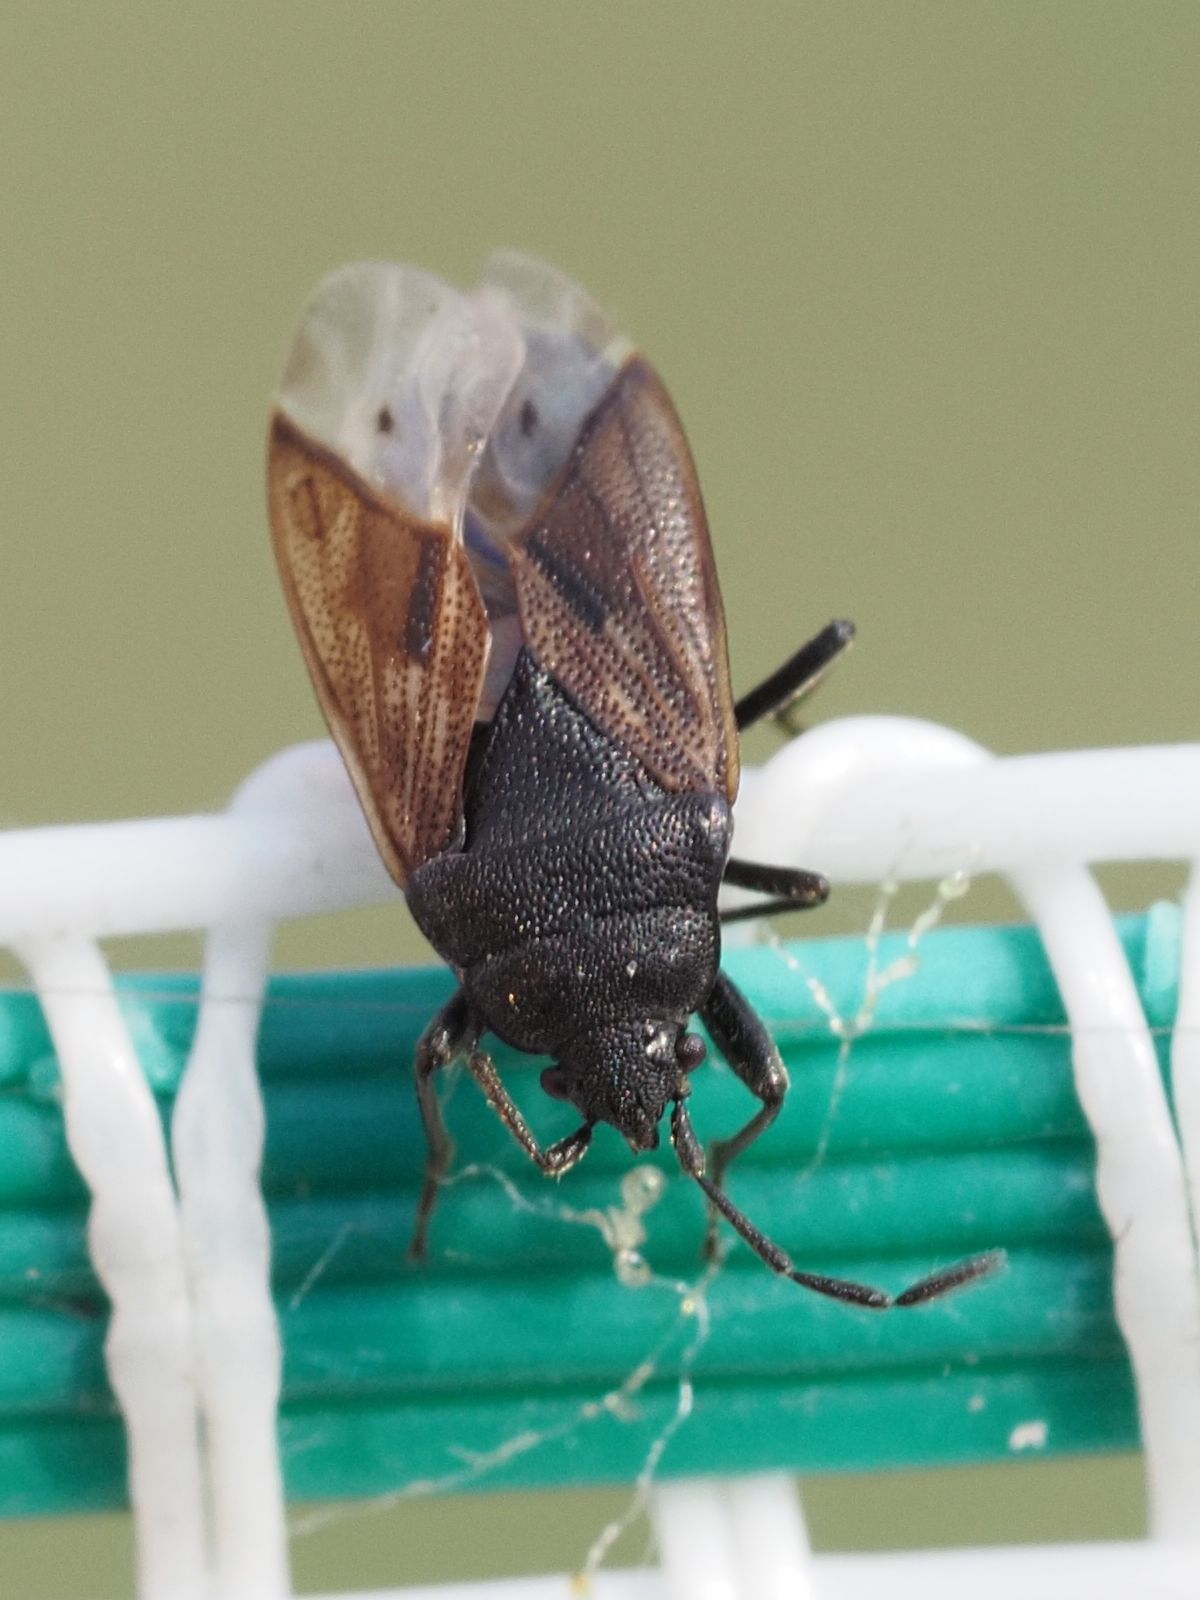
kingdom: Animalia
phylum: Arthropoda
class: Insecta
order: Hemiptera
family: Rhyparochromidae
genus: Drymus
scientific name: Drymus sylvaticus
